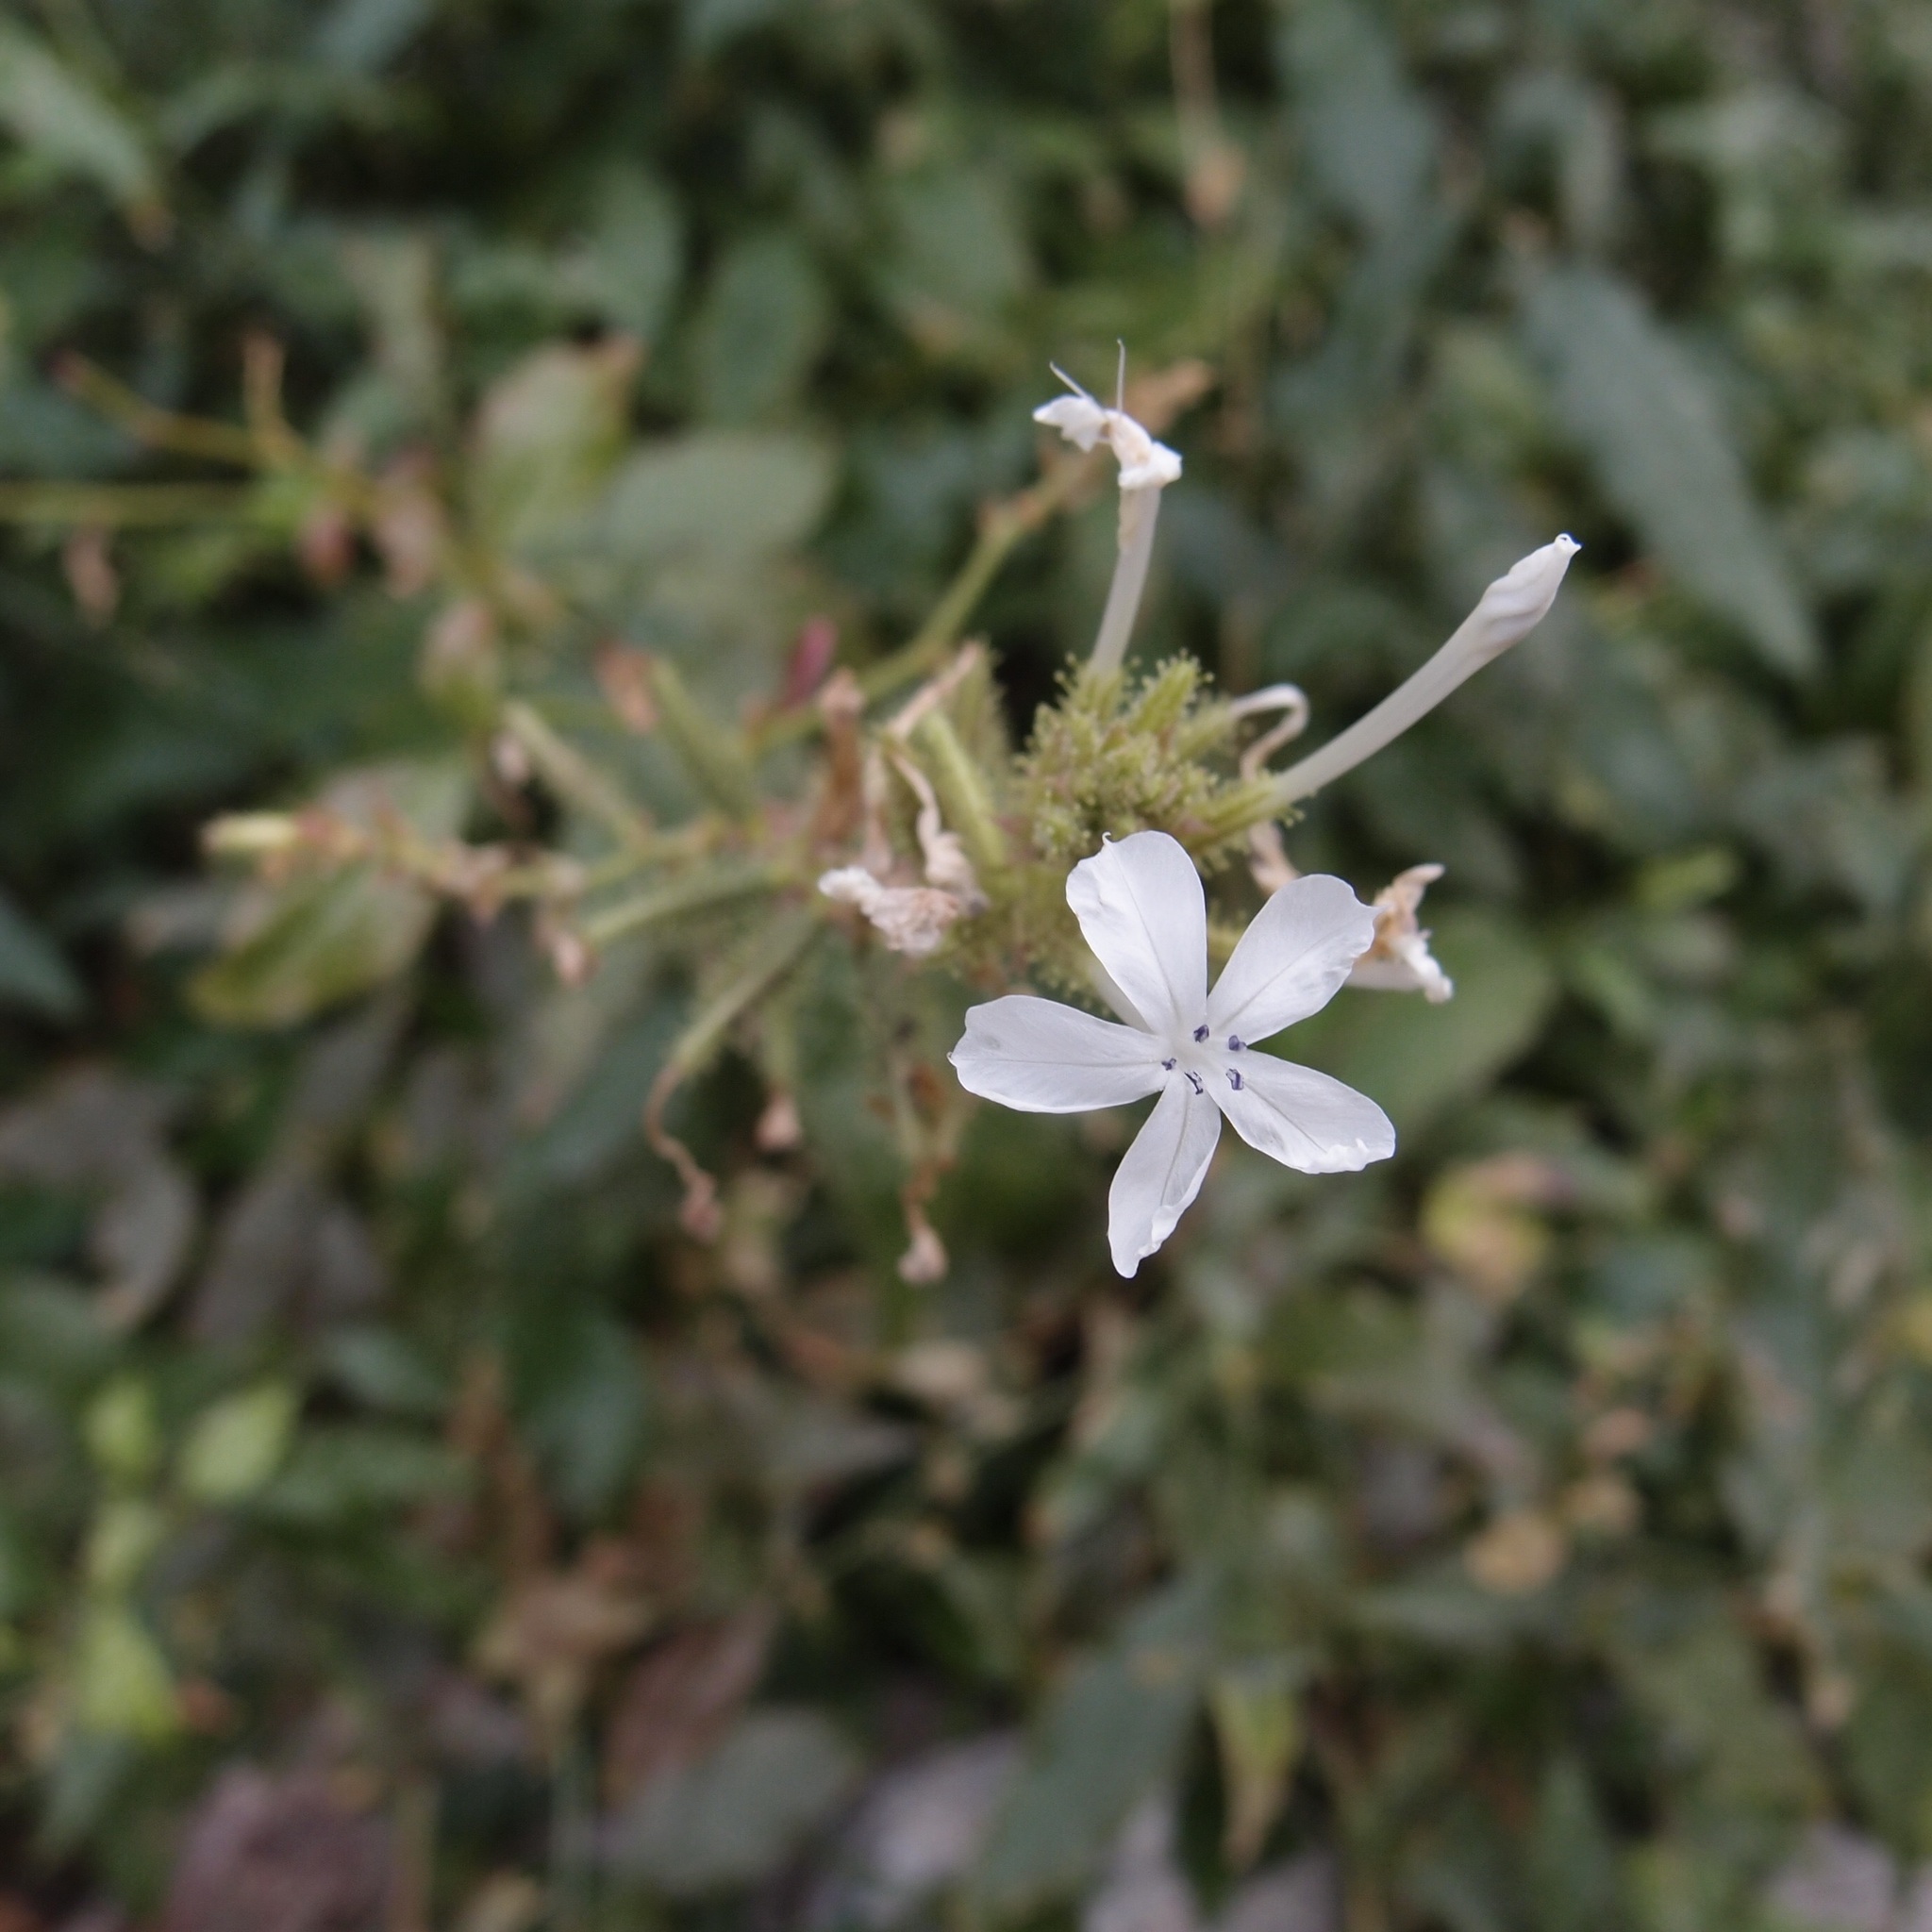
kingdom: Plantae
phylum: Tracheophyta
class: Magnoliopsida
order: Caryophyllales
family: Plumbaginaceae
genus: Plumbago
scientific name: Plumbago zeylanica
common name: Doctorbush
